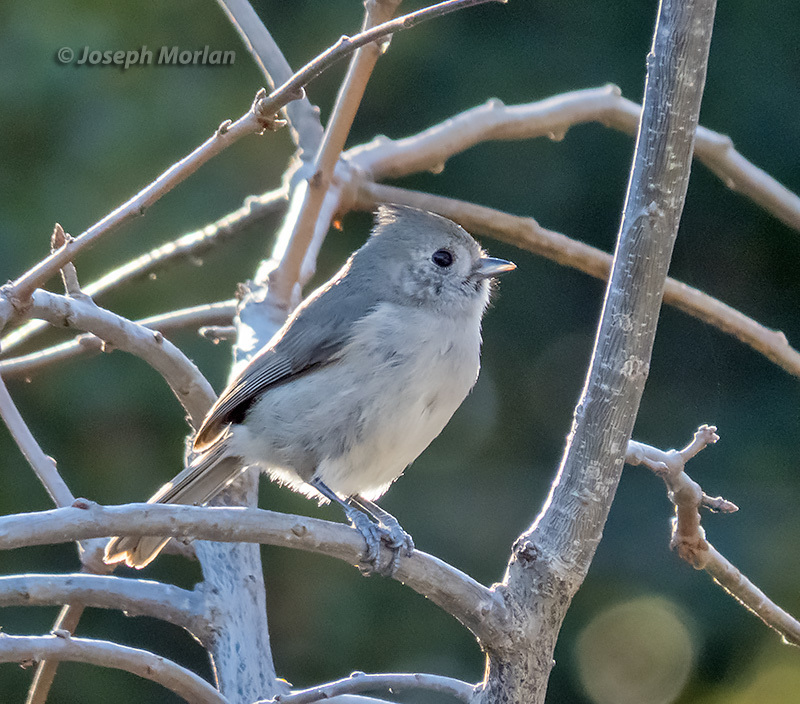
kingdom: Animalia
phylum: Chordata
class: Aves
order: Passeriformes
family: Paridae
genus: Baeolophus
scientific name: Baeolophus inornatus
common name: Oak titmouse
